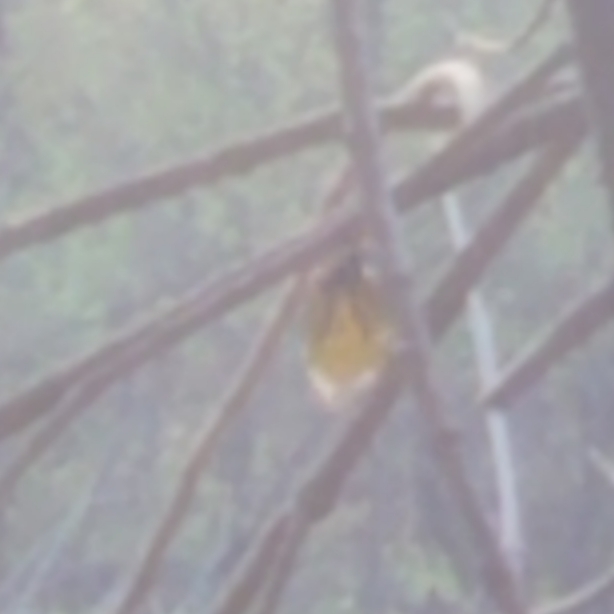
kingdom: Animalia
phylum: Chordata
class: Aves
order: Passeriformes
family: Parulidae
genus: Setophaga
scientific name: Setophaga magnolia
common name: Magnolia warbler
